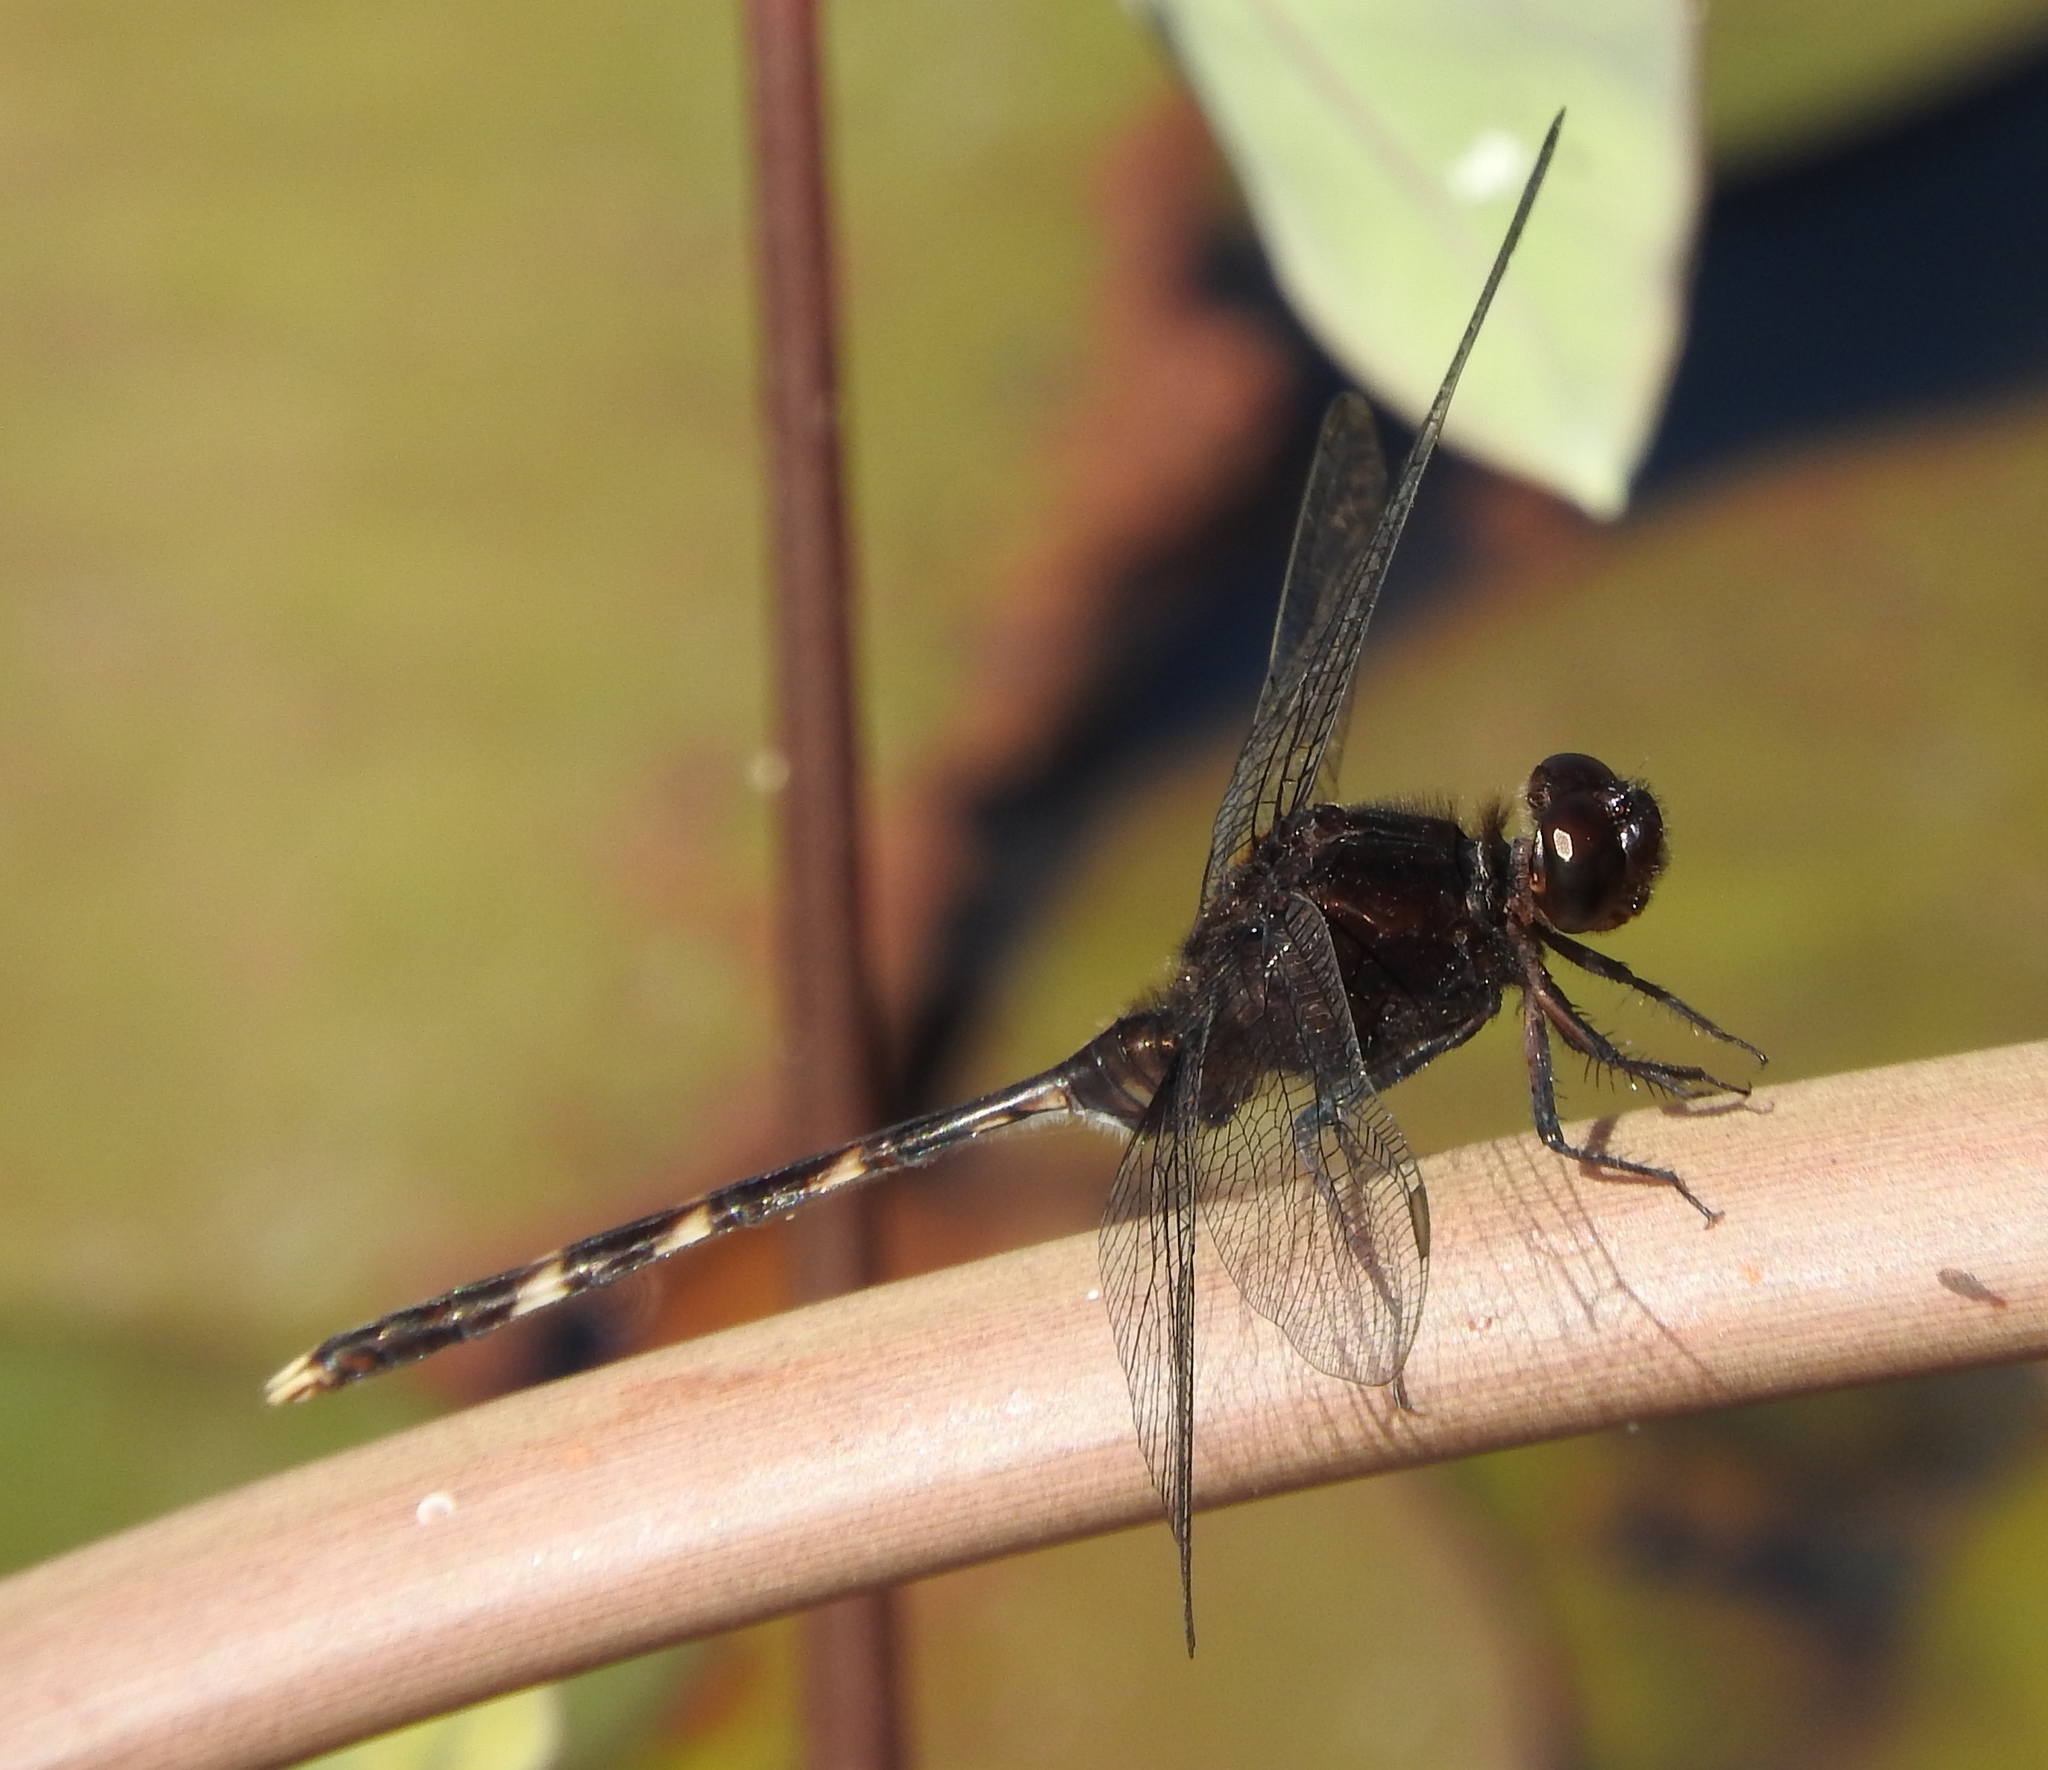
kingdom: Animalia
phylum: Arthropoda
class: Insecta
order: Odonata
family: Libellulidae
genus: Erythemis
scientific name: Erythemis plebeja
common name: Pin-tailed pondhawk
